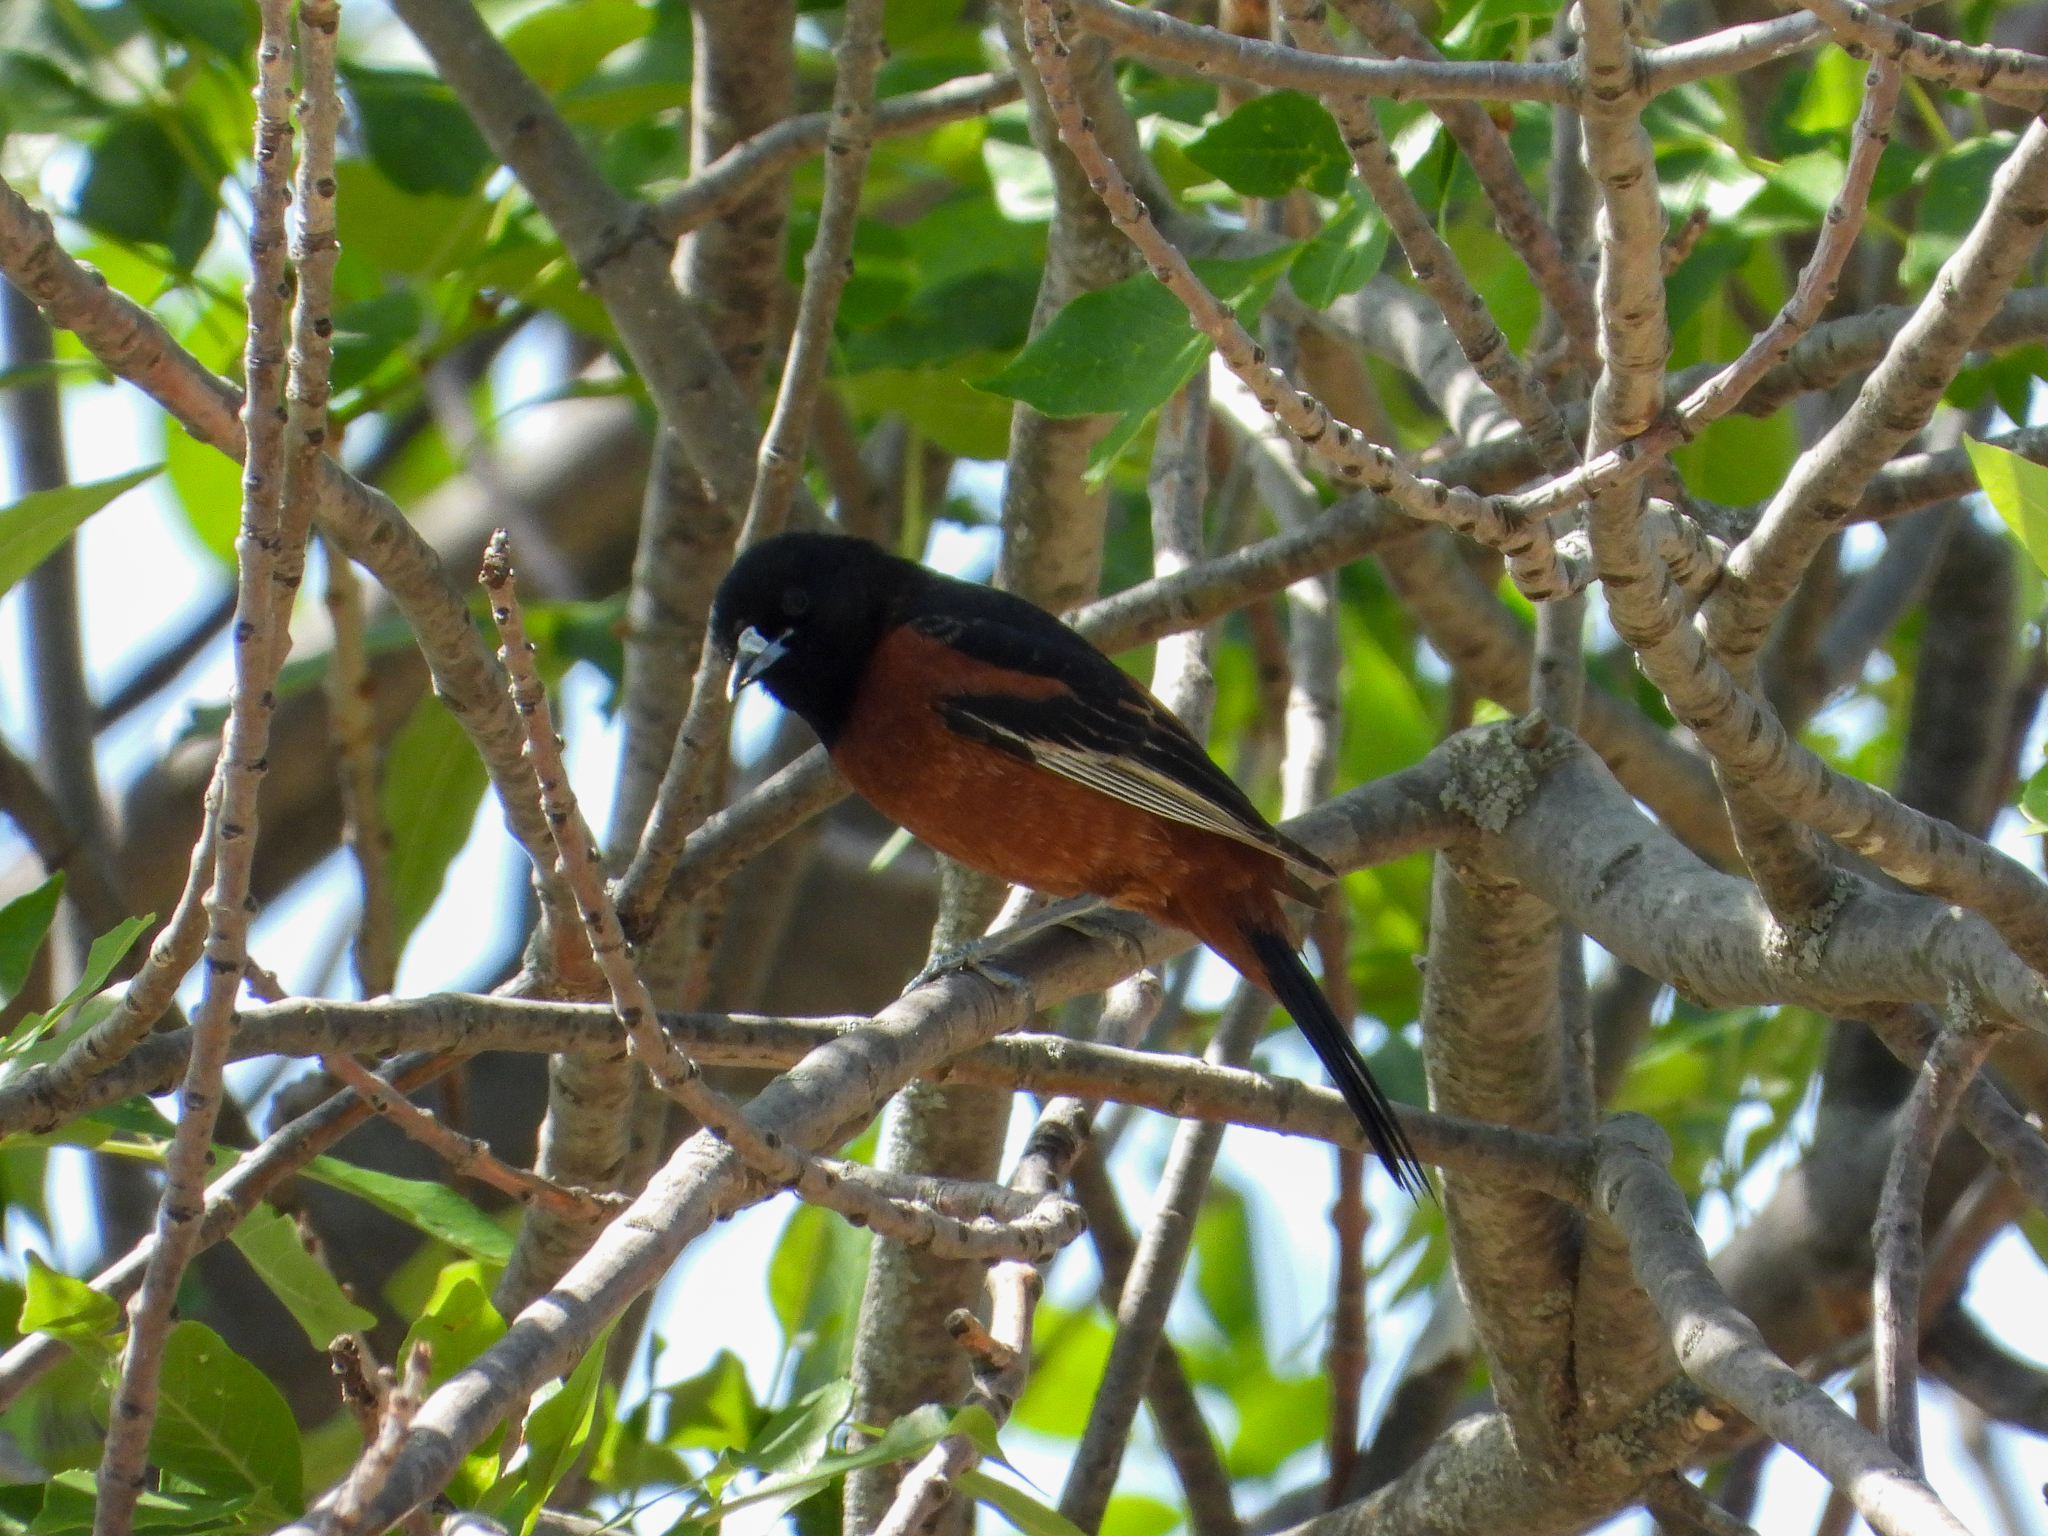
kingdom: Animalia
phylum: Chordata
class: Aves
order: Passeriformes
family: Icteridae
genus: Icterus
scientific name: Icterus spurius
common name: Orchard oriole
